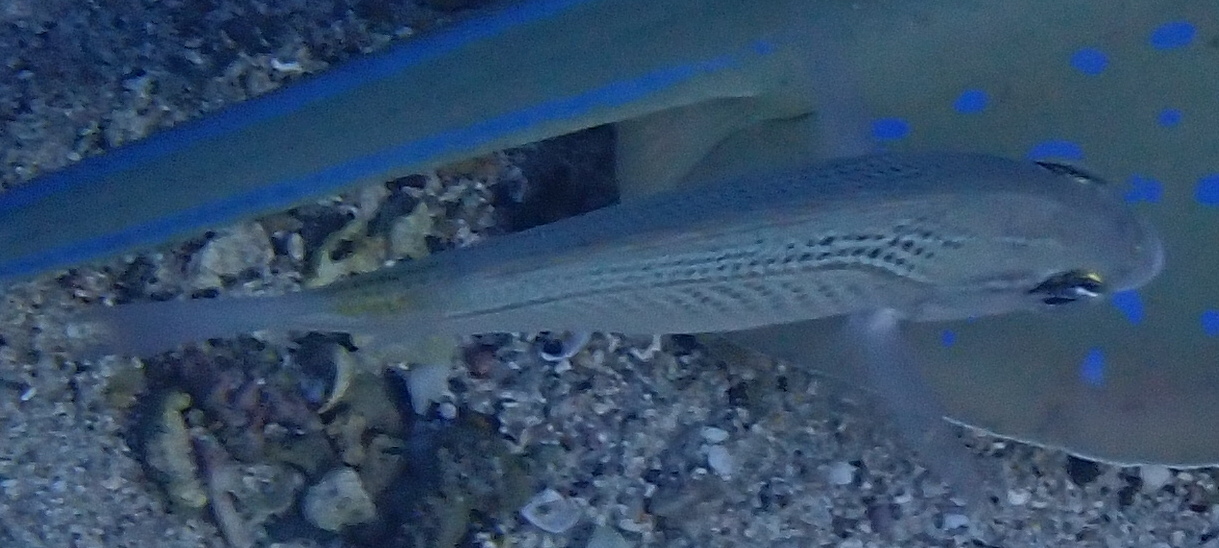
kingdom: Animalia
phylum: Chordata
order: Perciformes
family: Nemipteridae
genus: Scolopsis
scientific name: Scolopsis ghanam
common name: Arabian monocle bream
